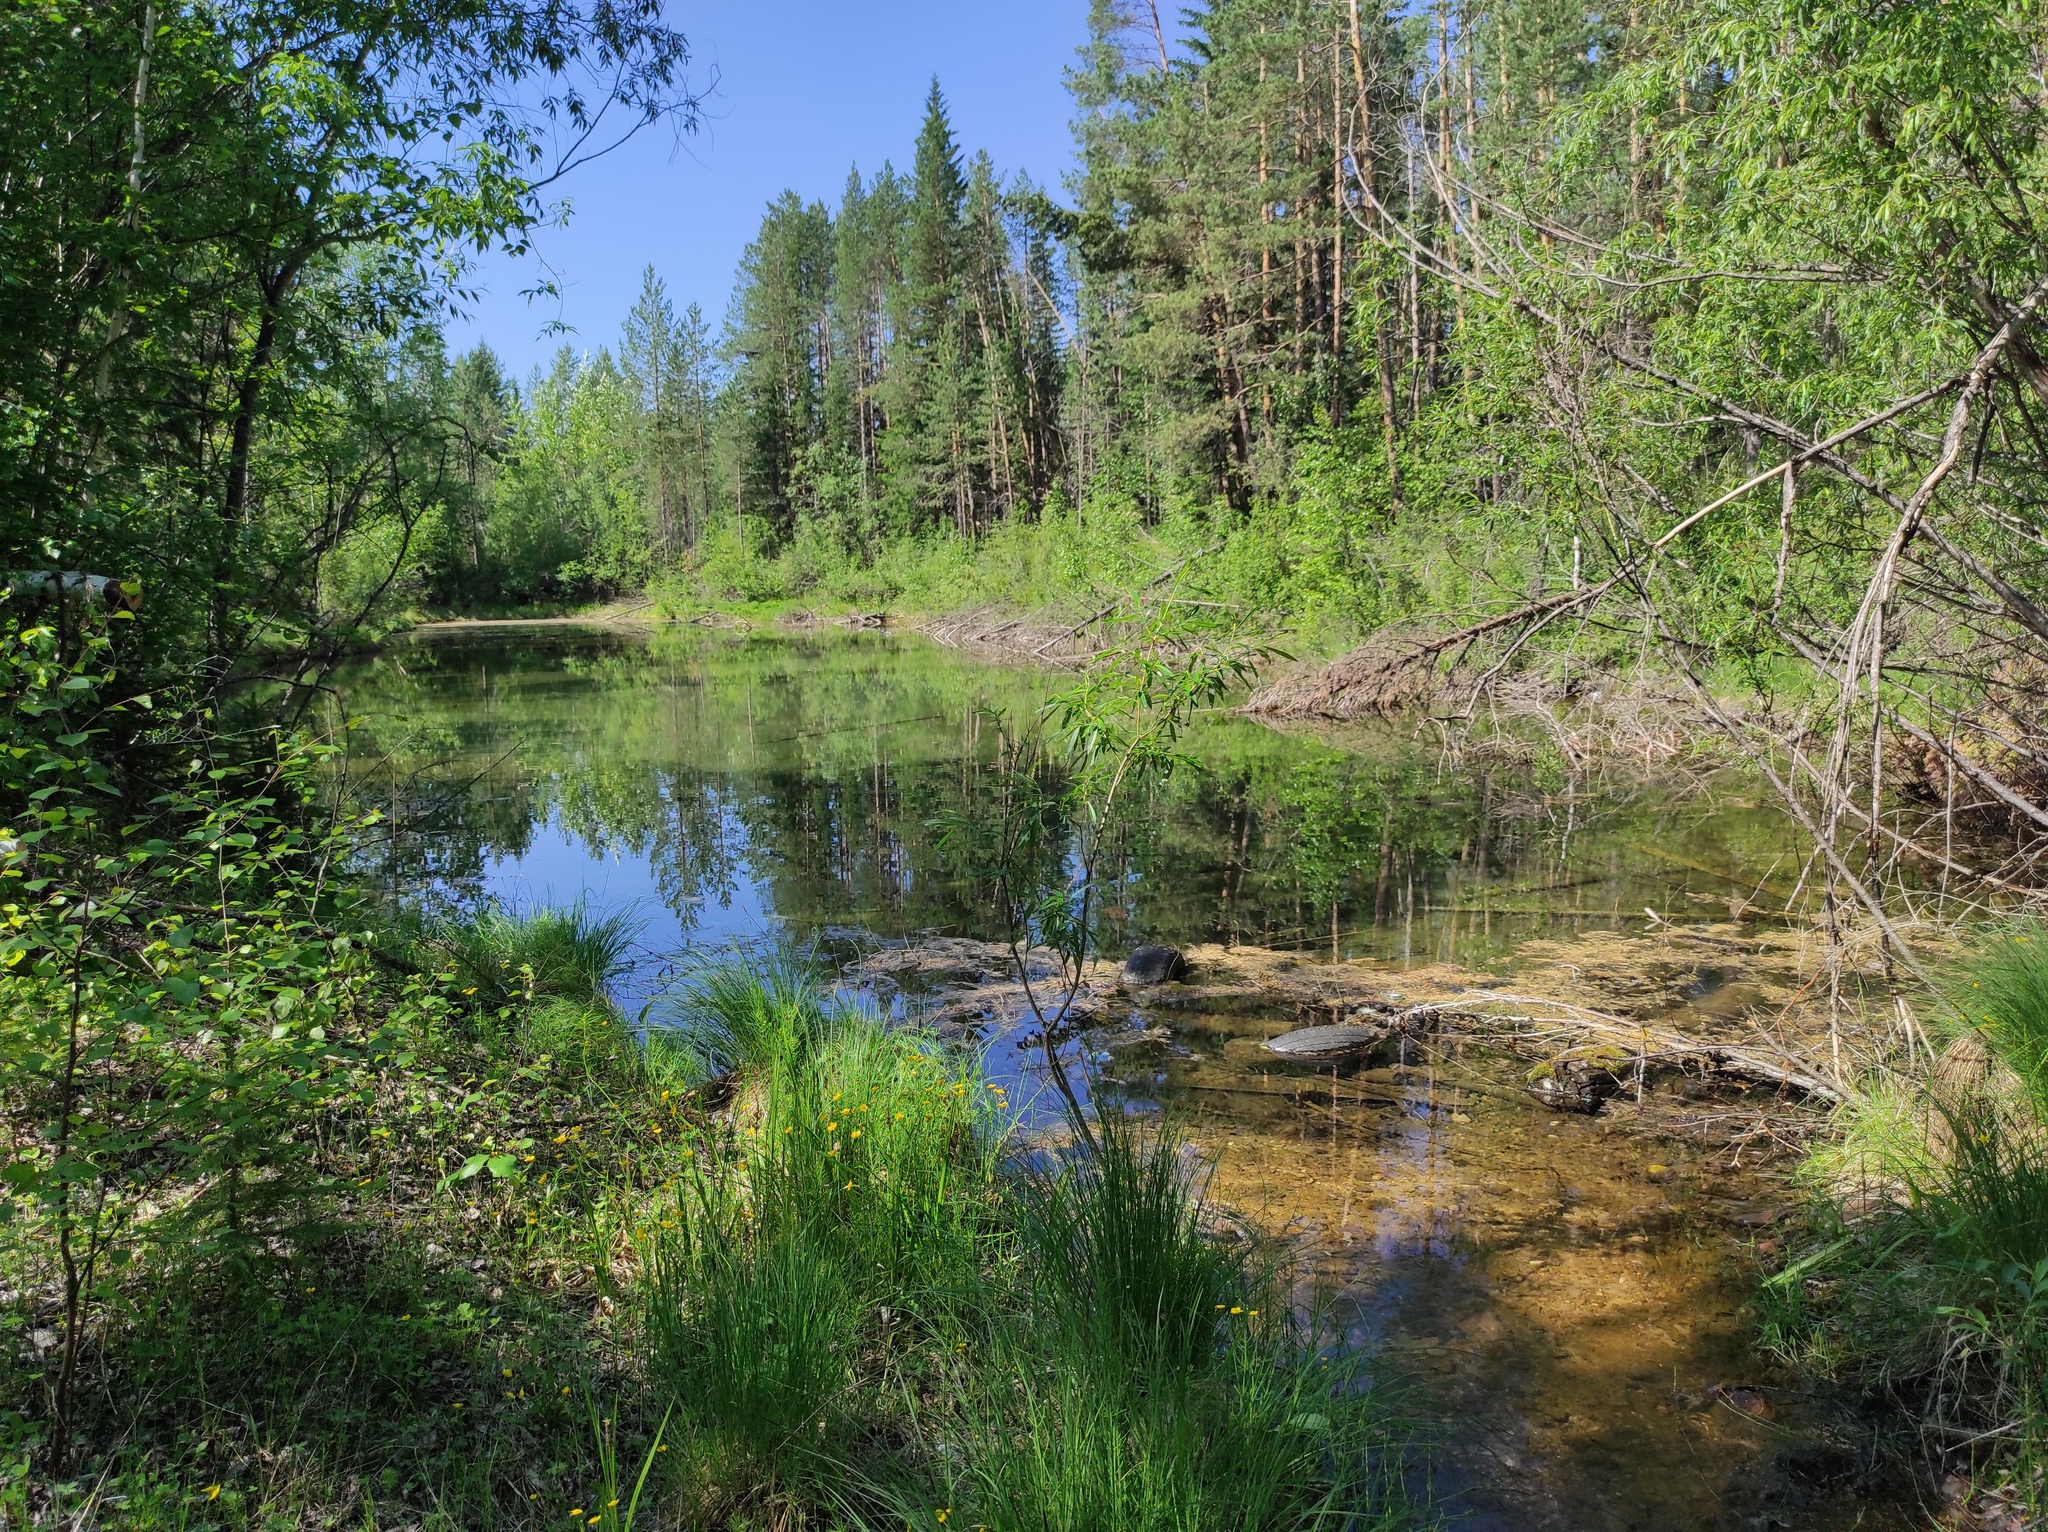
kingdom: Plantae
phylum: Tracheophyta
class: Polypodiopsida
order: Equisetales
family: Equisetaceae
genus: Equisetum
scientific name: Equisetum fluviatile
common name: Water horsetail
